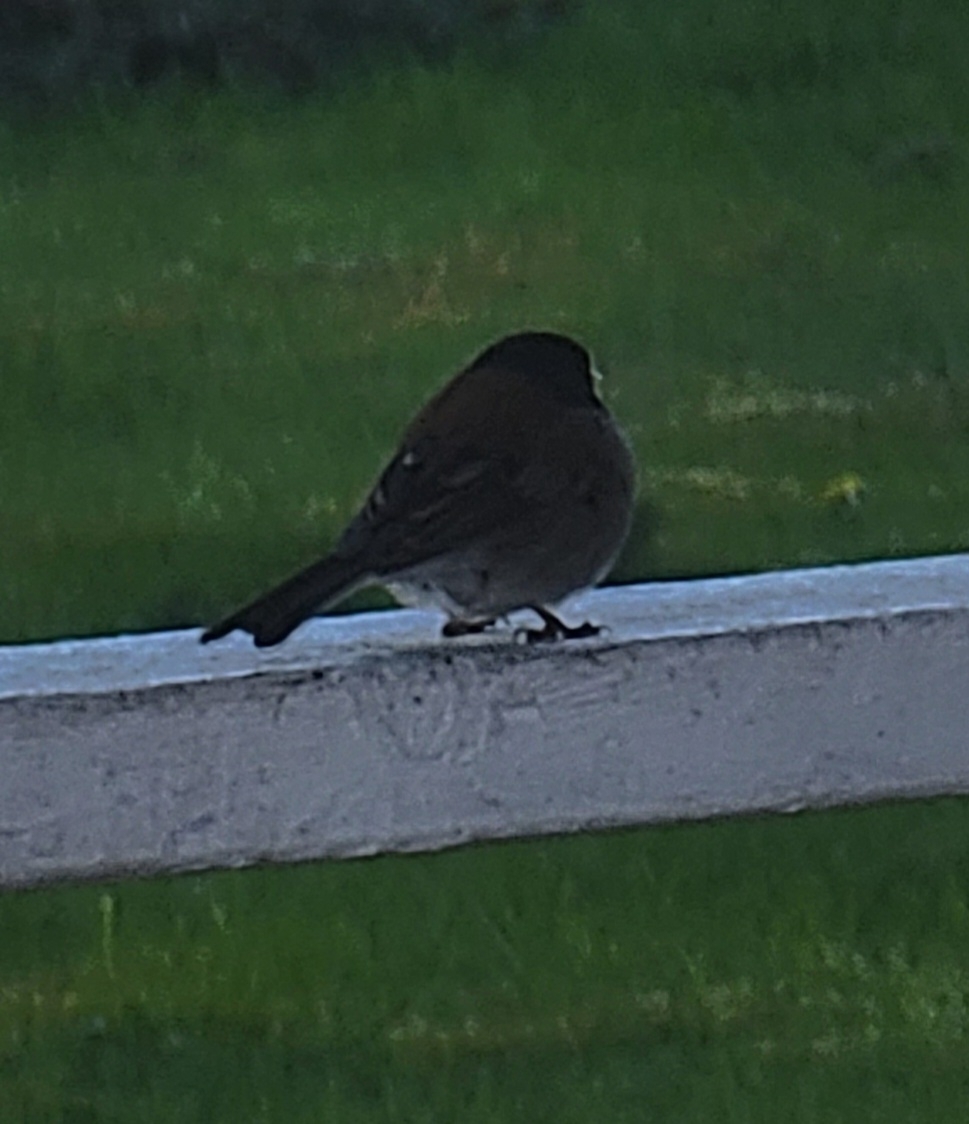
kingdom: Animalia
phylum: Chordata
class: Aves
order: Passeriformes
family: Passerellidae
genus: Junco
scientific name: Junco hyemalis
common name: Dark-eyed junco
